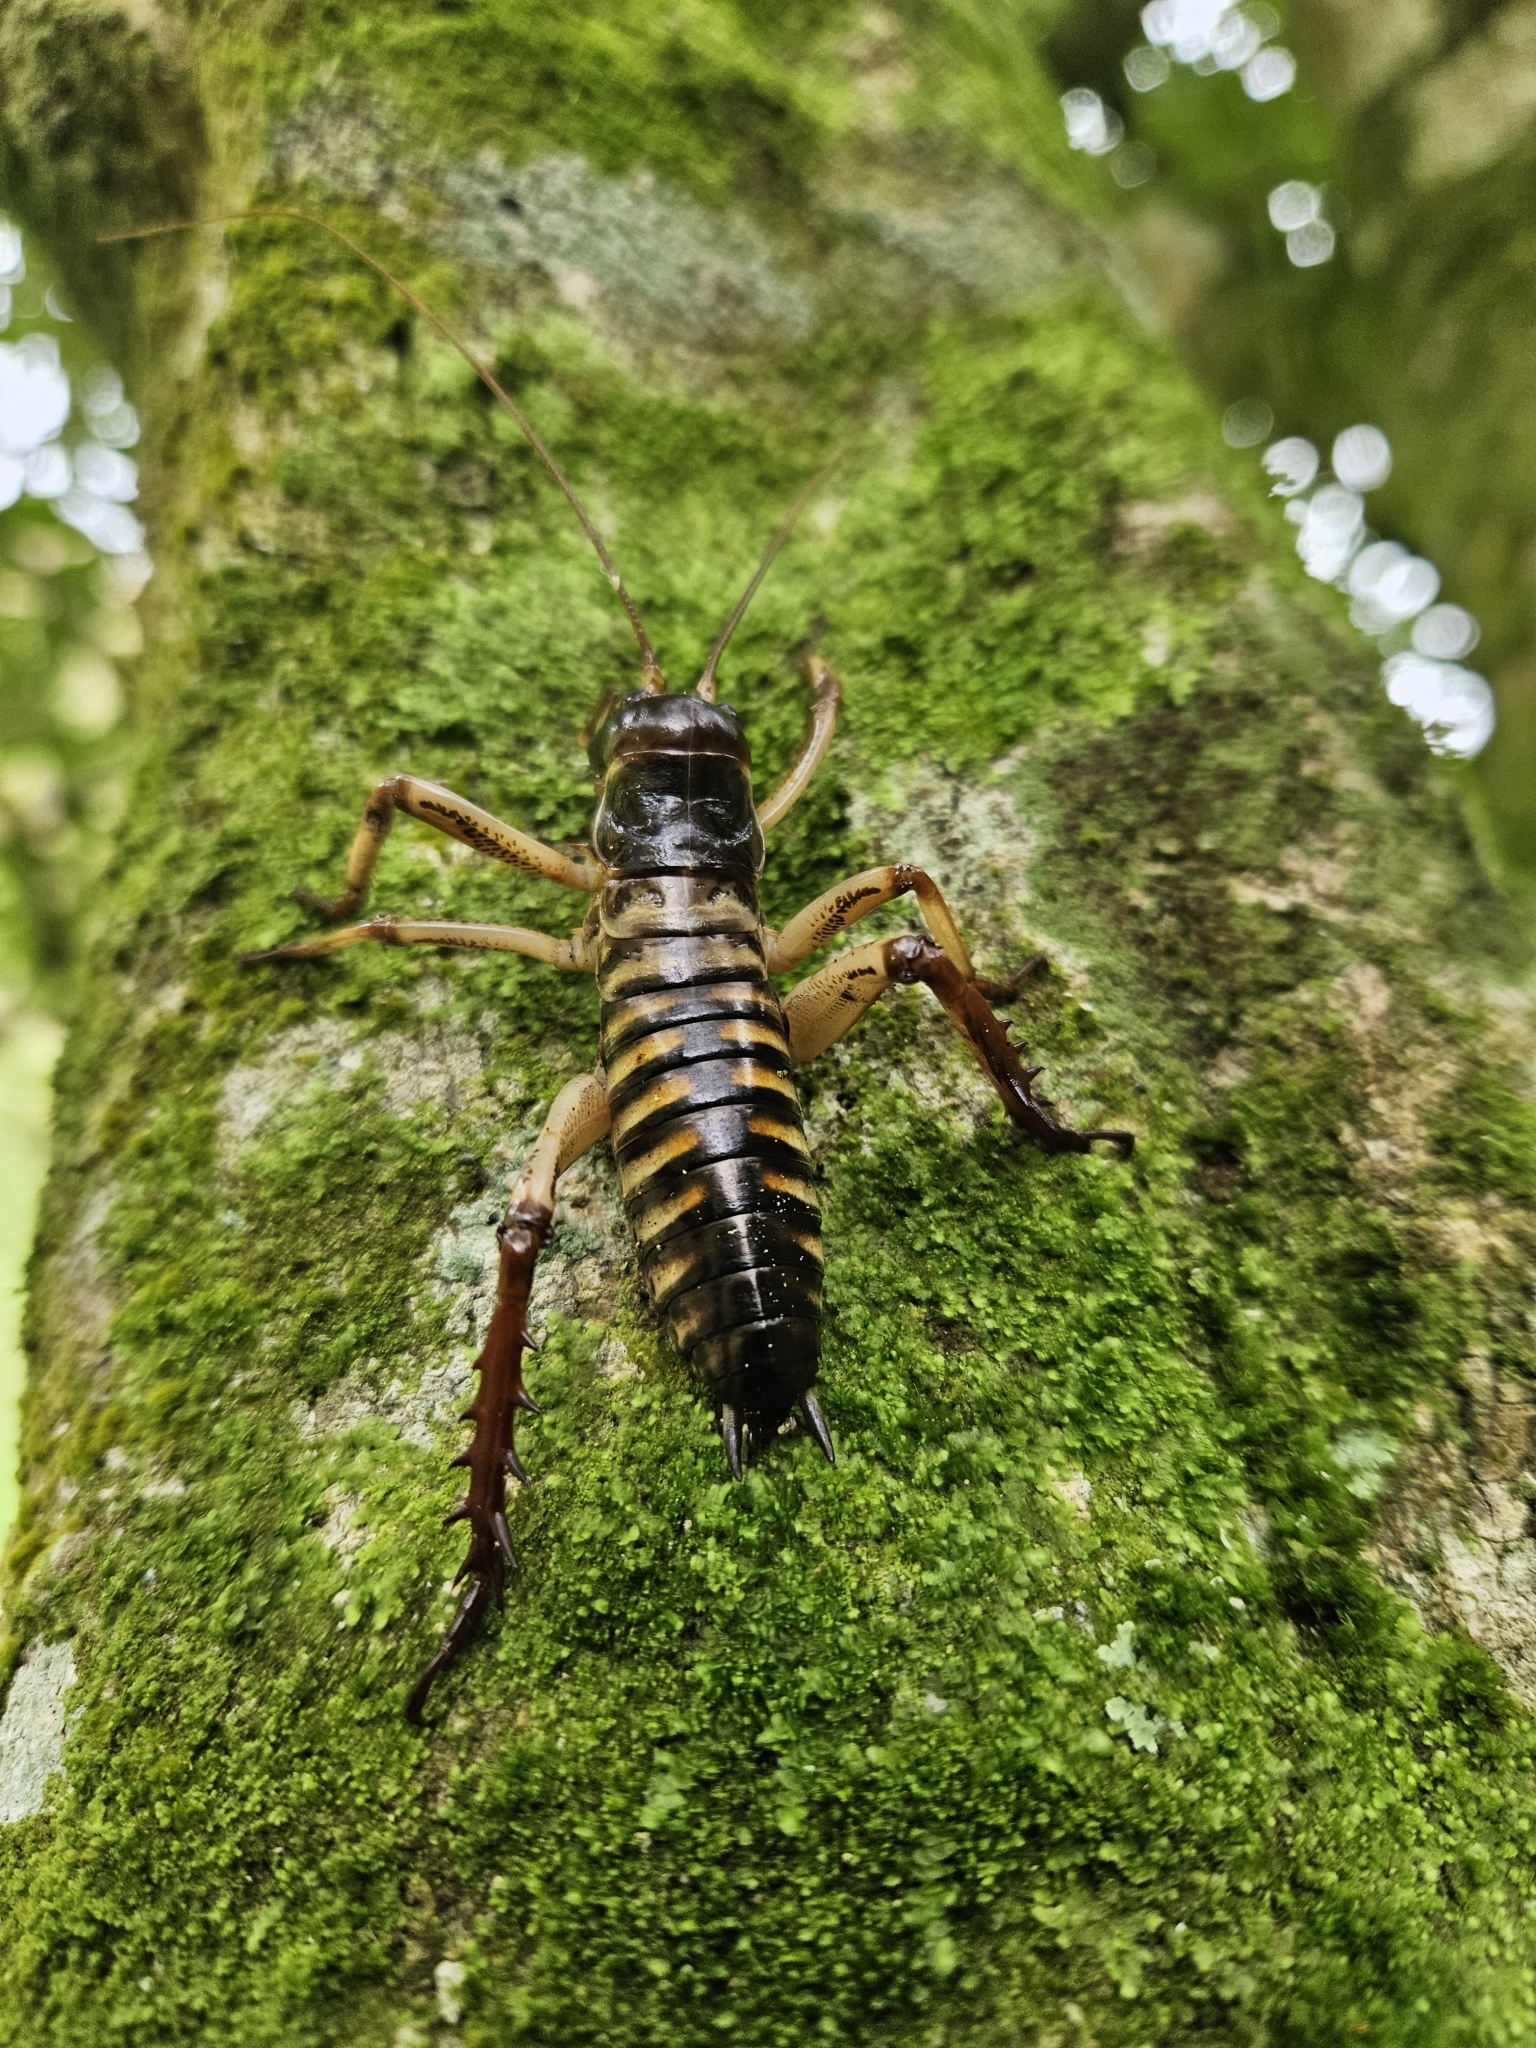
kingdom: Animalia
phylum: Arthropoda
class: Insecta
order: Orthoptera
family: Anostostomatidae
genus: Hemideina
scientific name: Hemideina crassidens
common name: Wellington tree weta
